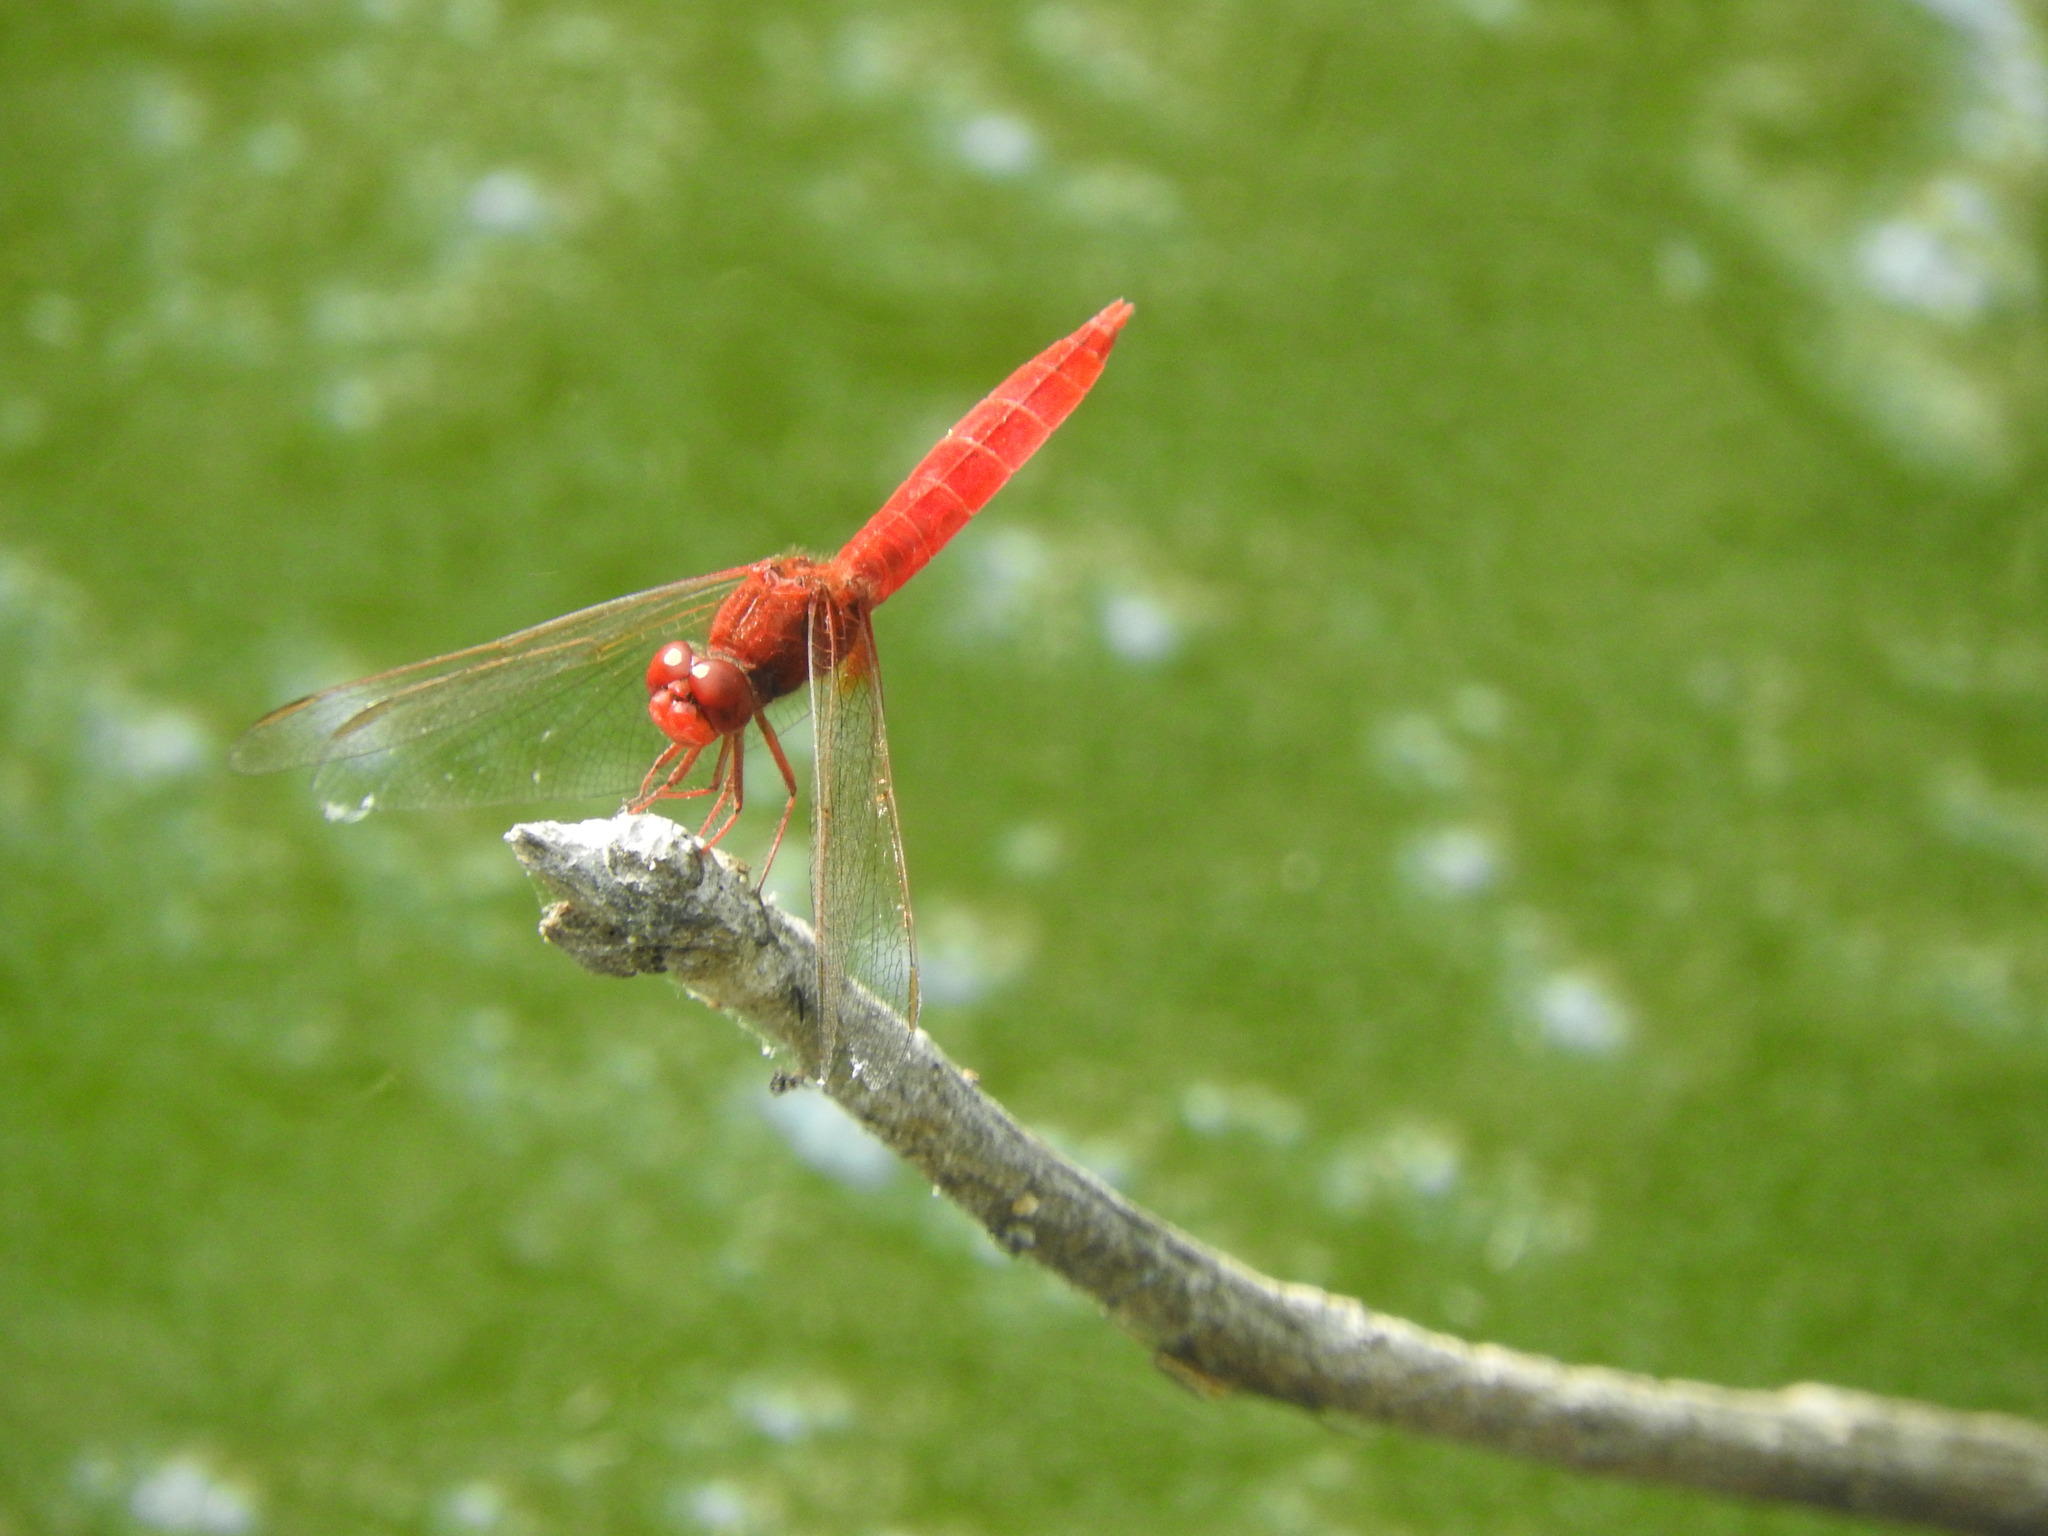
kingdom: Animalia
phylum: Arthropoda
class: Insecta
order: Odonata
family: Libellulidae
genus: Crocothemis
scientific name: Crocothemis erythraea
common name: Scarlet dragonfly
